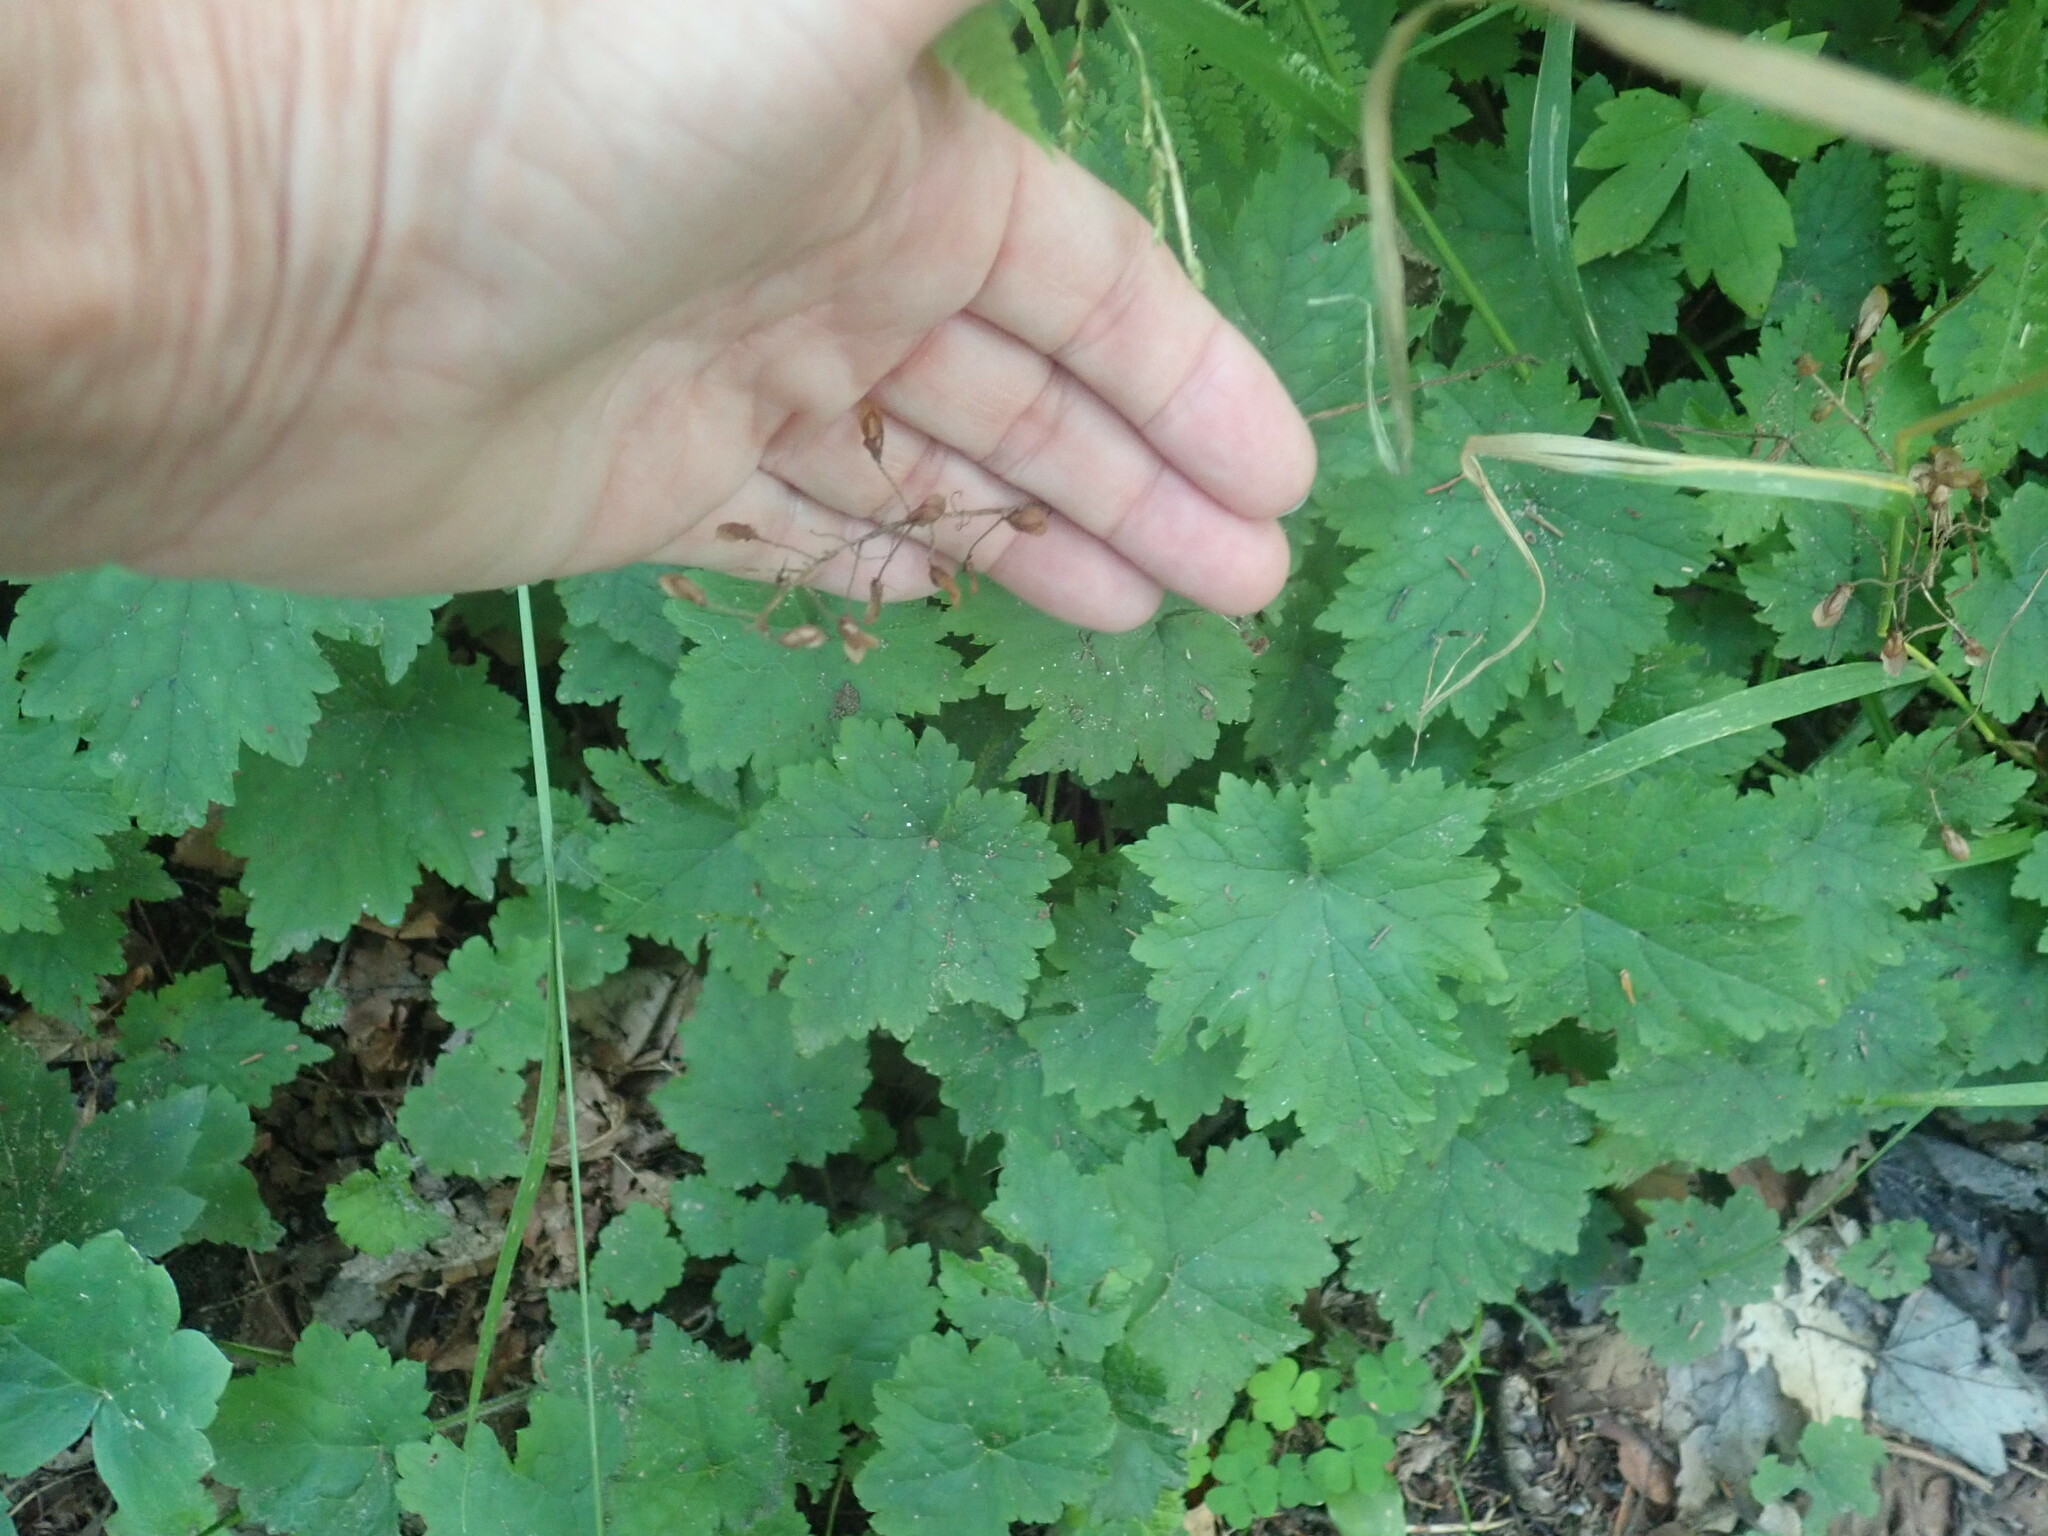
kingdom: Plantae
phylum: Tracheophyta
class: Magnoliopsida
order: Saxifragales
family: Saxifragaceae
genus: Tiarella
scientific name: Tiarella stolonifera
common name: Stoloniferous foamflower
